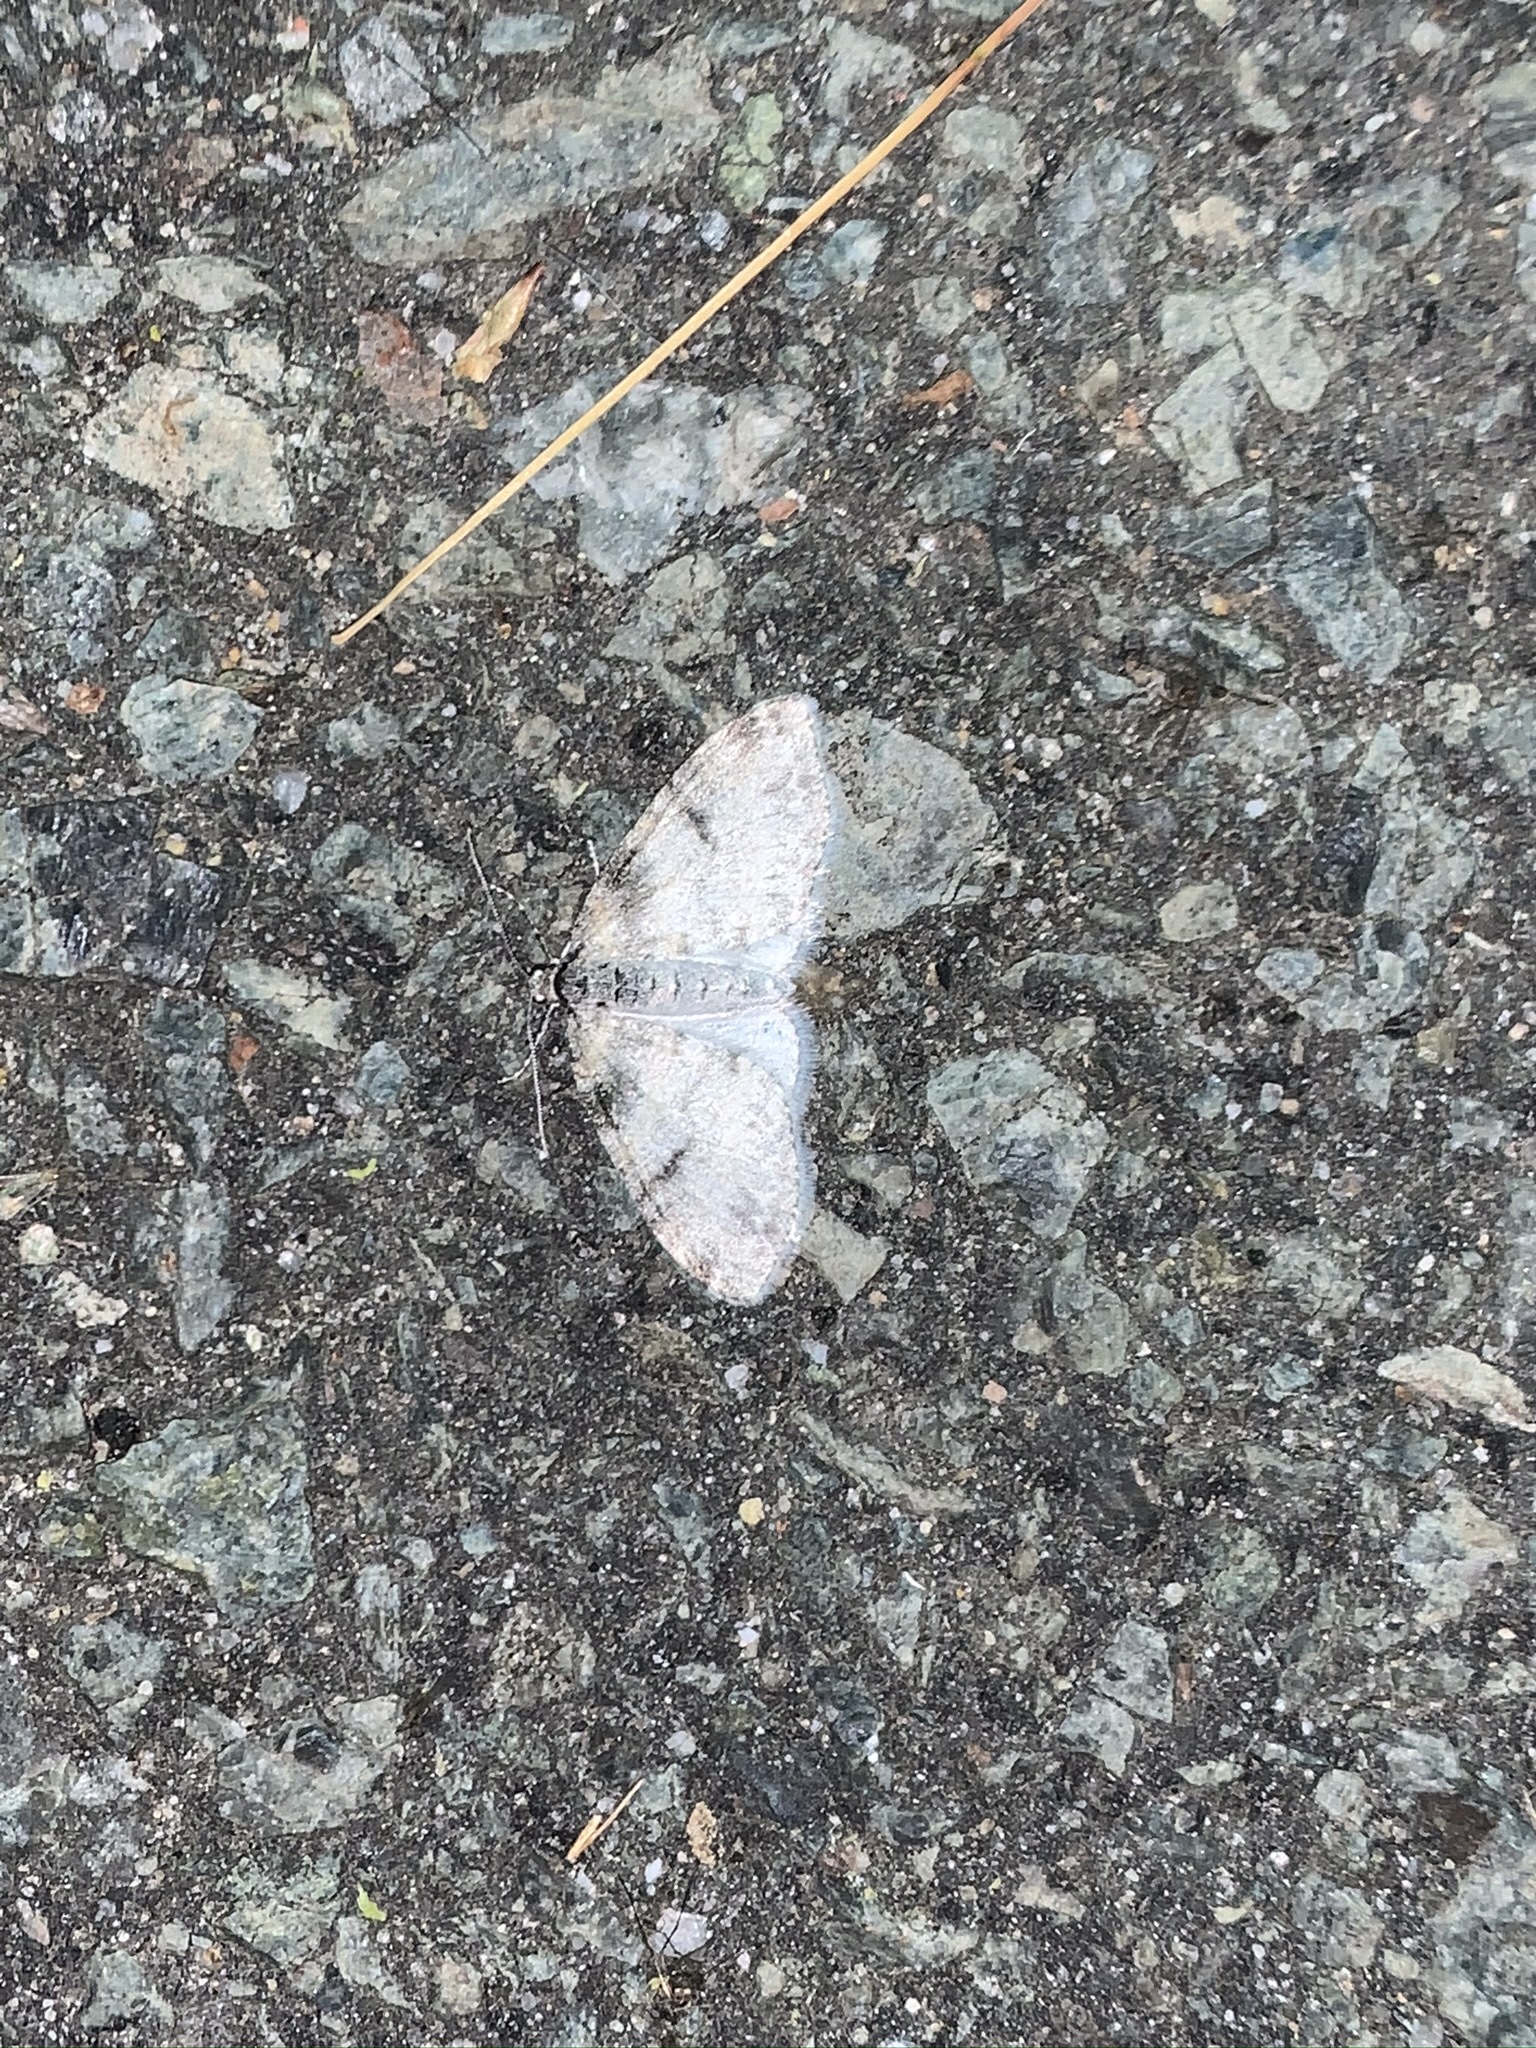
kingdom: Animalia
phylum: Arthropoda
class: Insecta
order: Lepidoptera
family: Geometridae
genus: Lobophora
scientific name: Lobophora nivigerata
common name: Powdered bigwing
